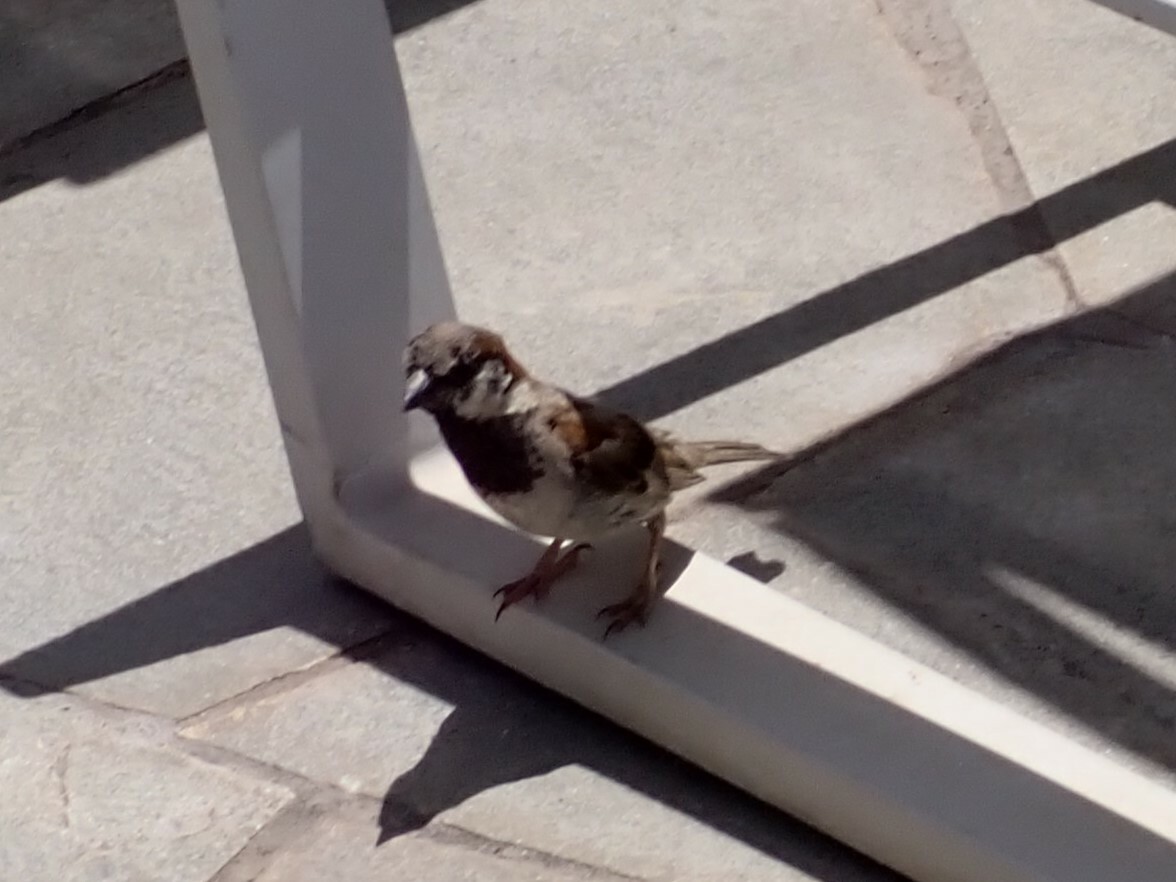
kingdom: Animalia
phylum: Chordata
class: Aves
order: Passeriformes
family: Passeridae
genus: Passer
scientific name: Passer domesticus
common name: House sparrow
